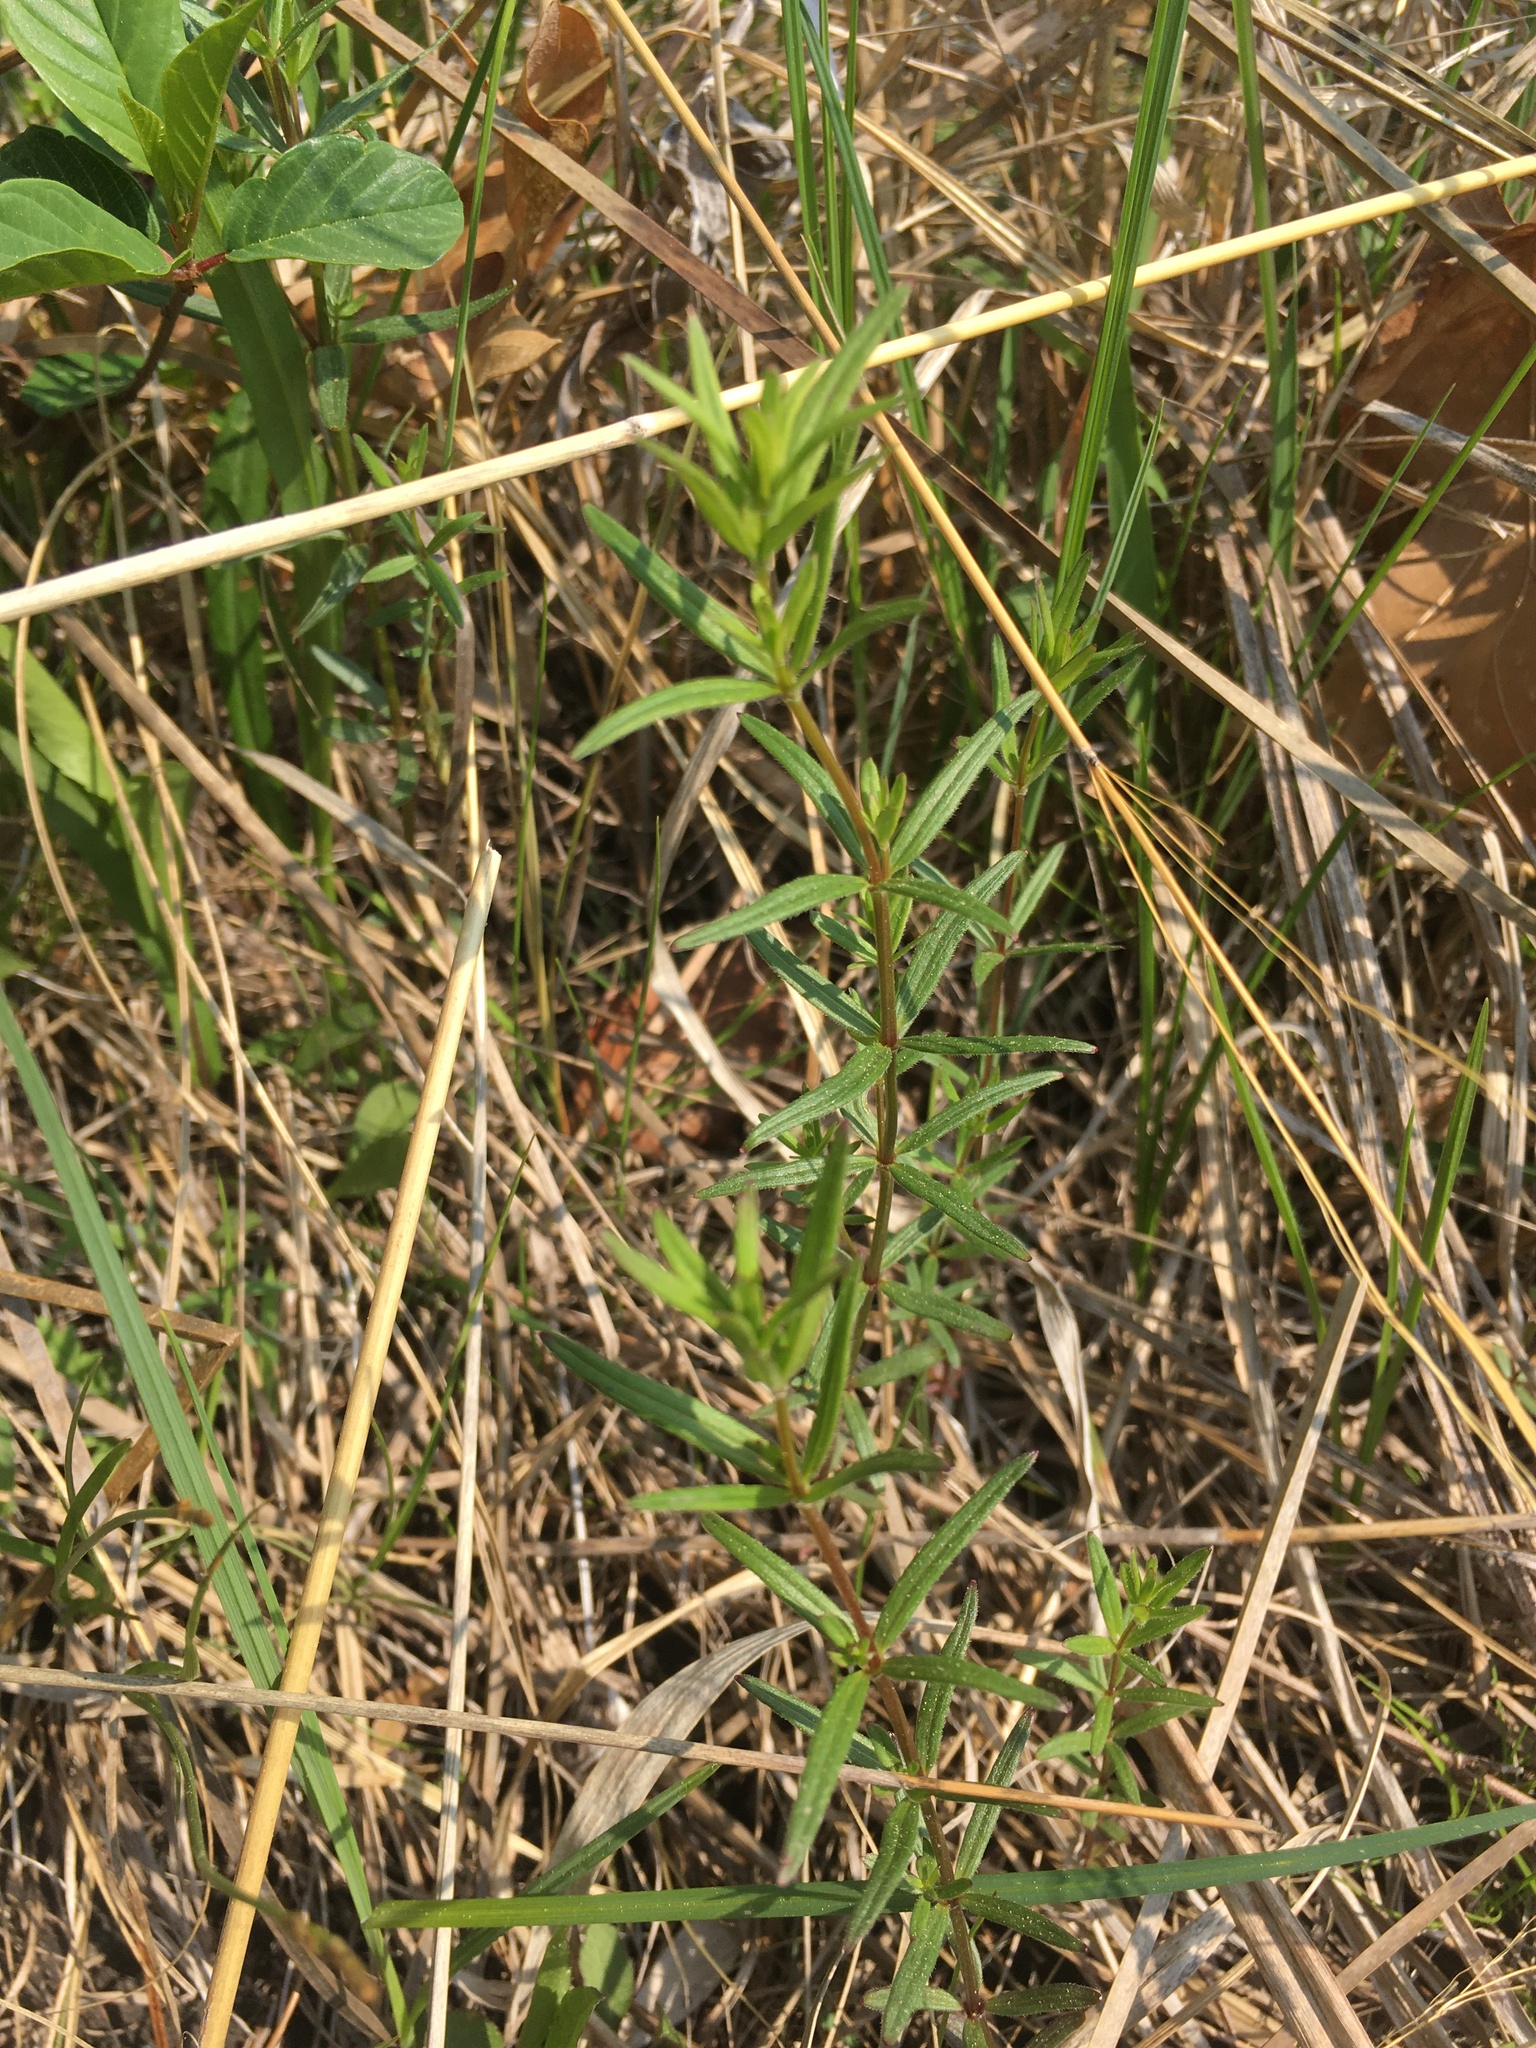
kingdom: Plantae
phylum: Tracheophyta
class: Magnoliopsida
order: Gentianales
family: Rubiaceae
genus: Galium
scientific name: Galium boreale
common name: Northern bedstraw
